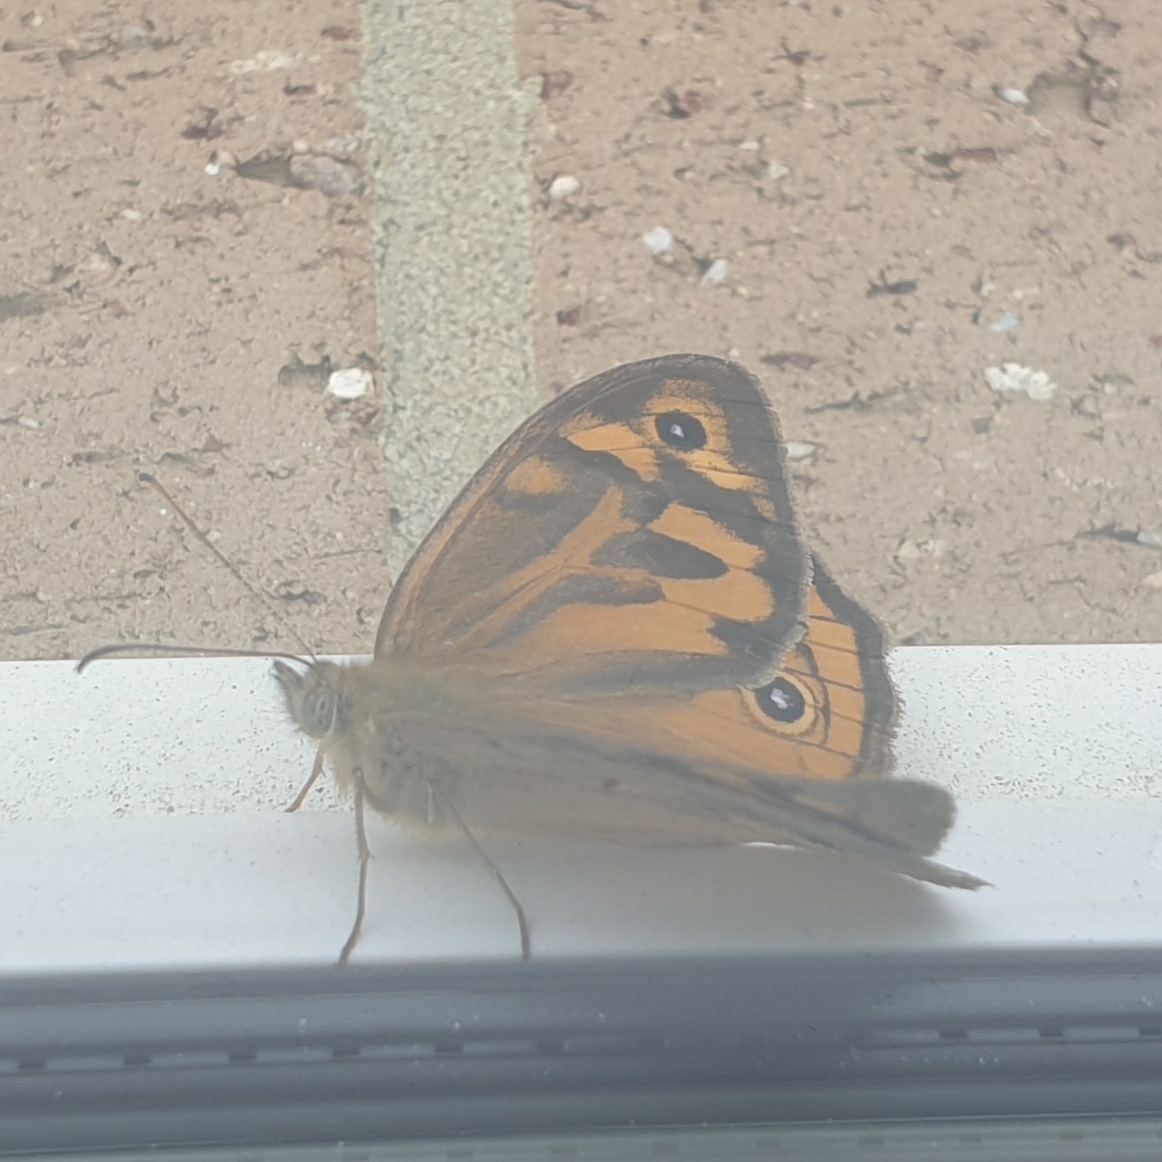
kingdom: Animalia
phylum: Arthropoda
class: Insecta
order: Lepidoptera
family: Nymphalidae
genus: Heteronympha
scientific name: Heteronympha merope
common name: Common brown
